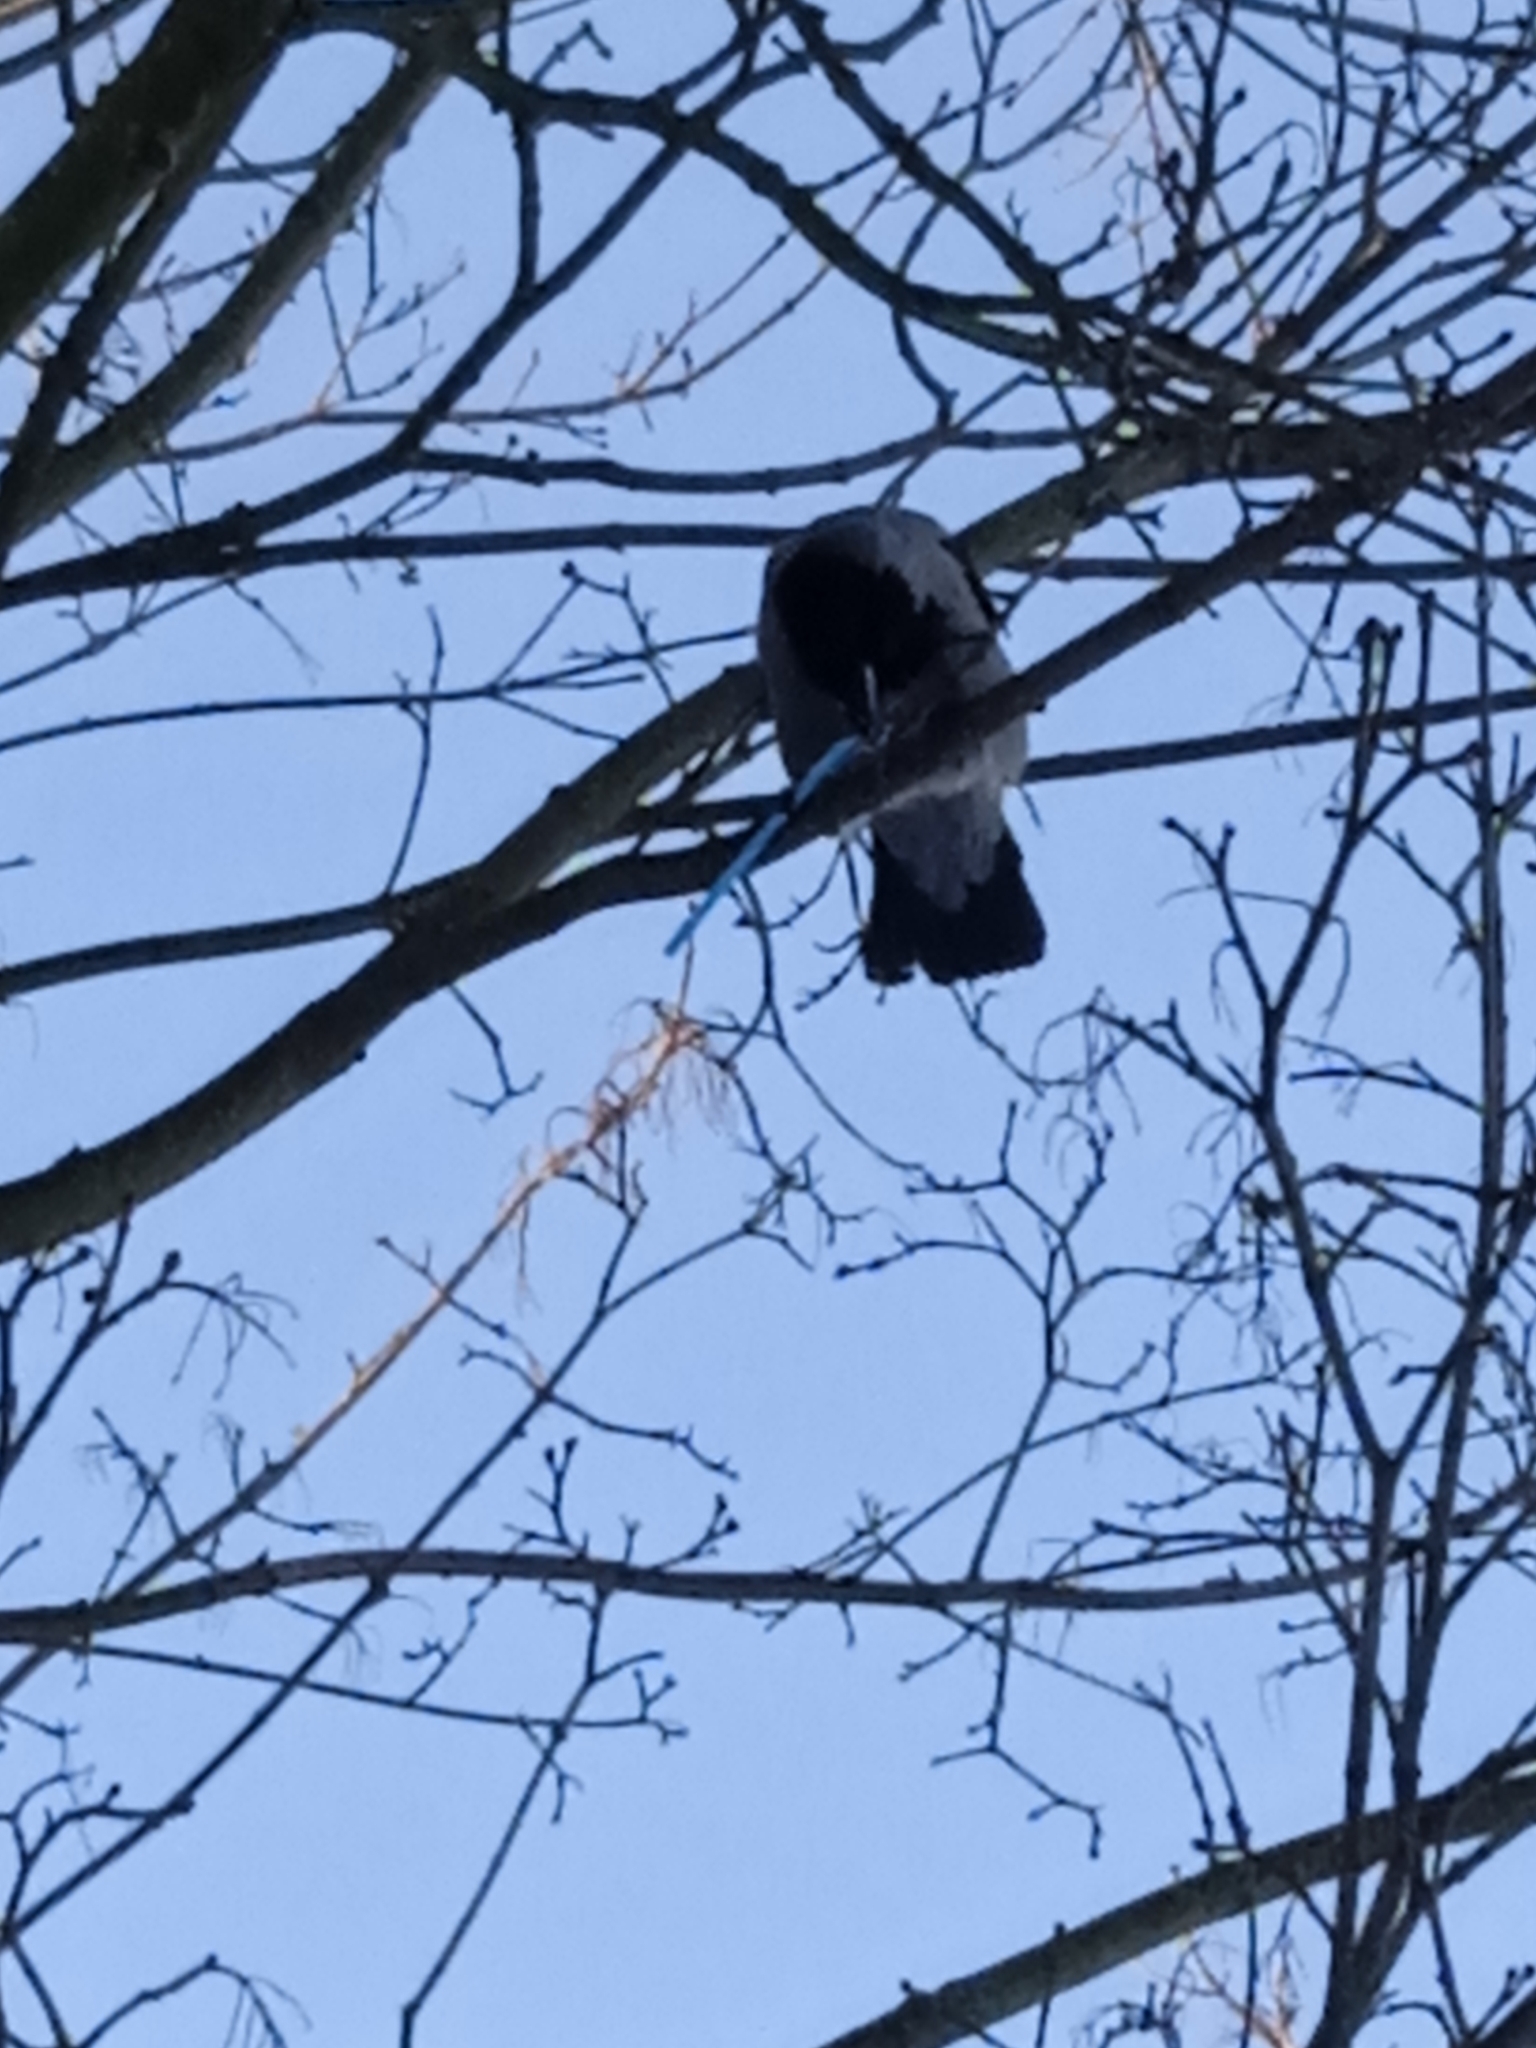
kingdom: Animalia
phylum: Chordata
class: Aves
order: Passeriformes
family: Corvidae
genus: Corvus
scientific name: Corvus cornix
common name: Hooded crow
